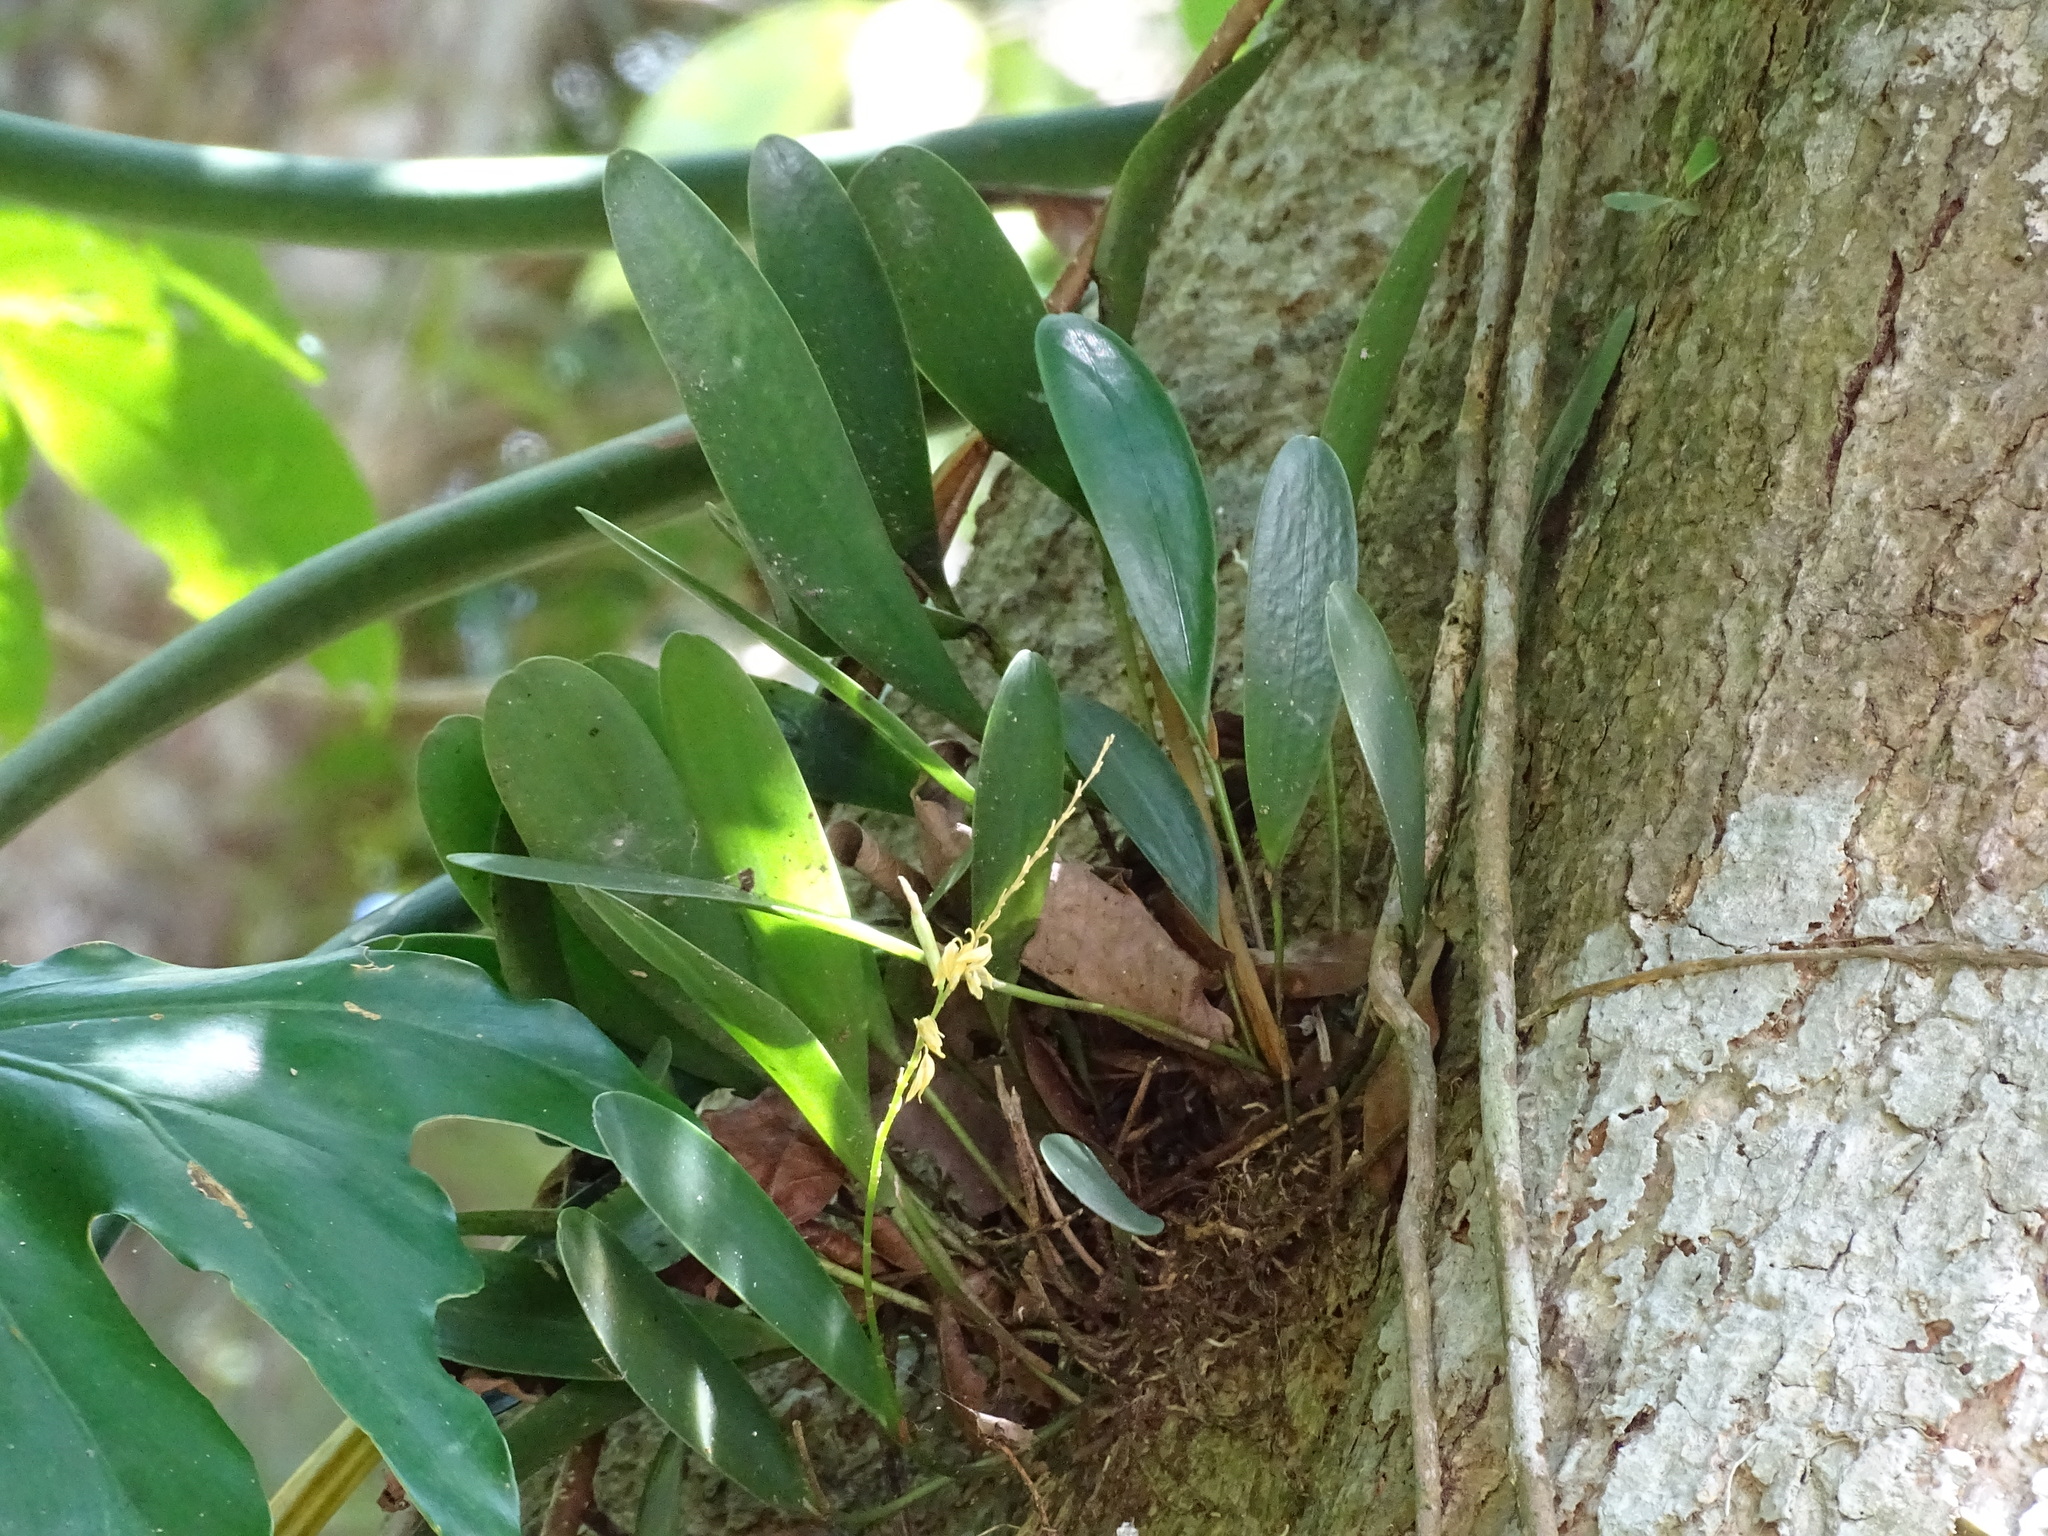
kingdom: Plantae
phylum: Tracheophyta
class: Liliopsida
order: Asparagales
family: Orchidaceae
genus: Pleurothallis
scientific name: Pleurothallis quadrifida
